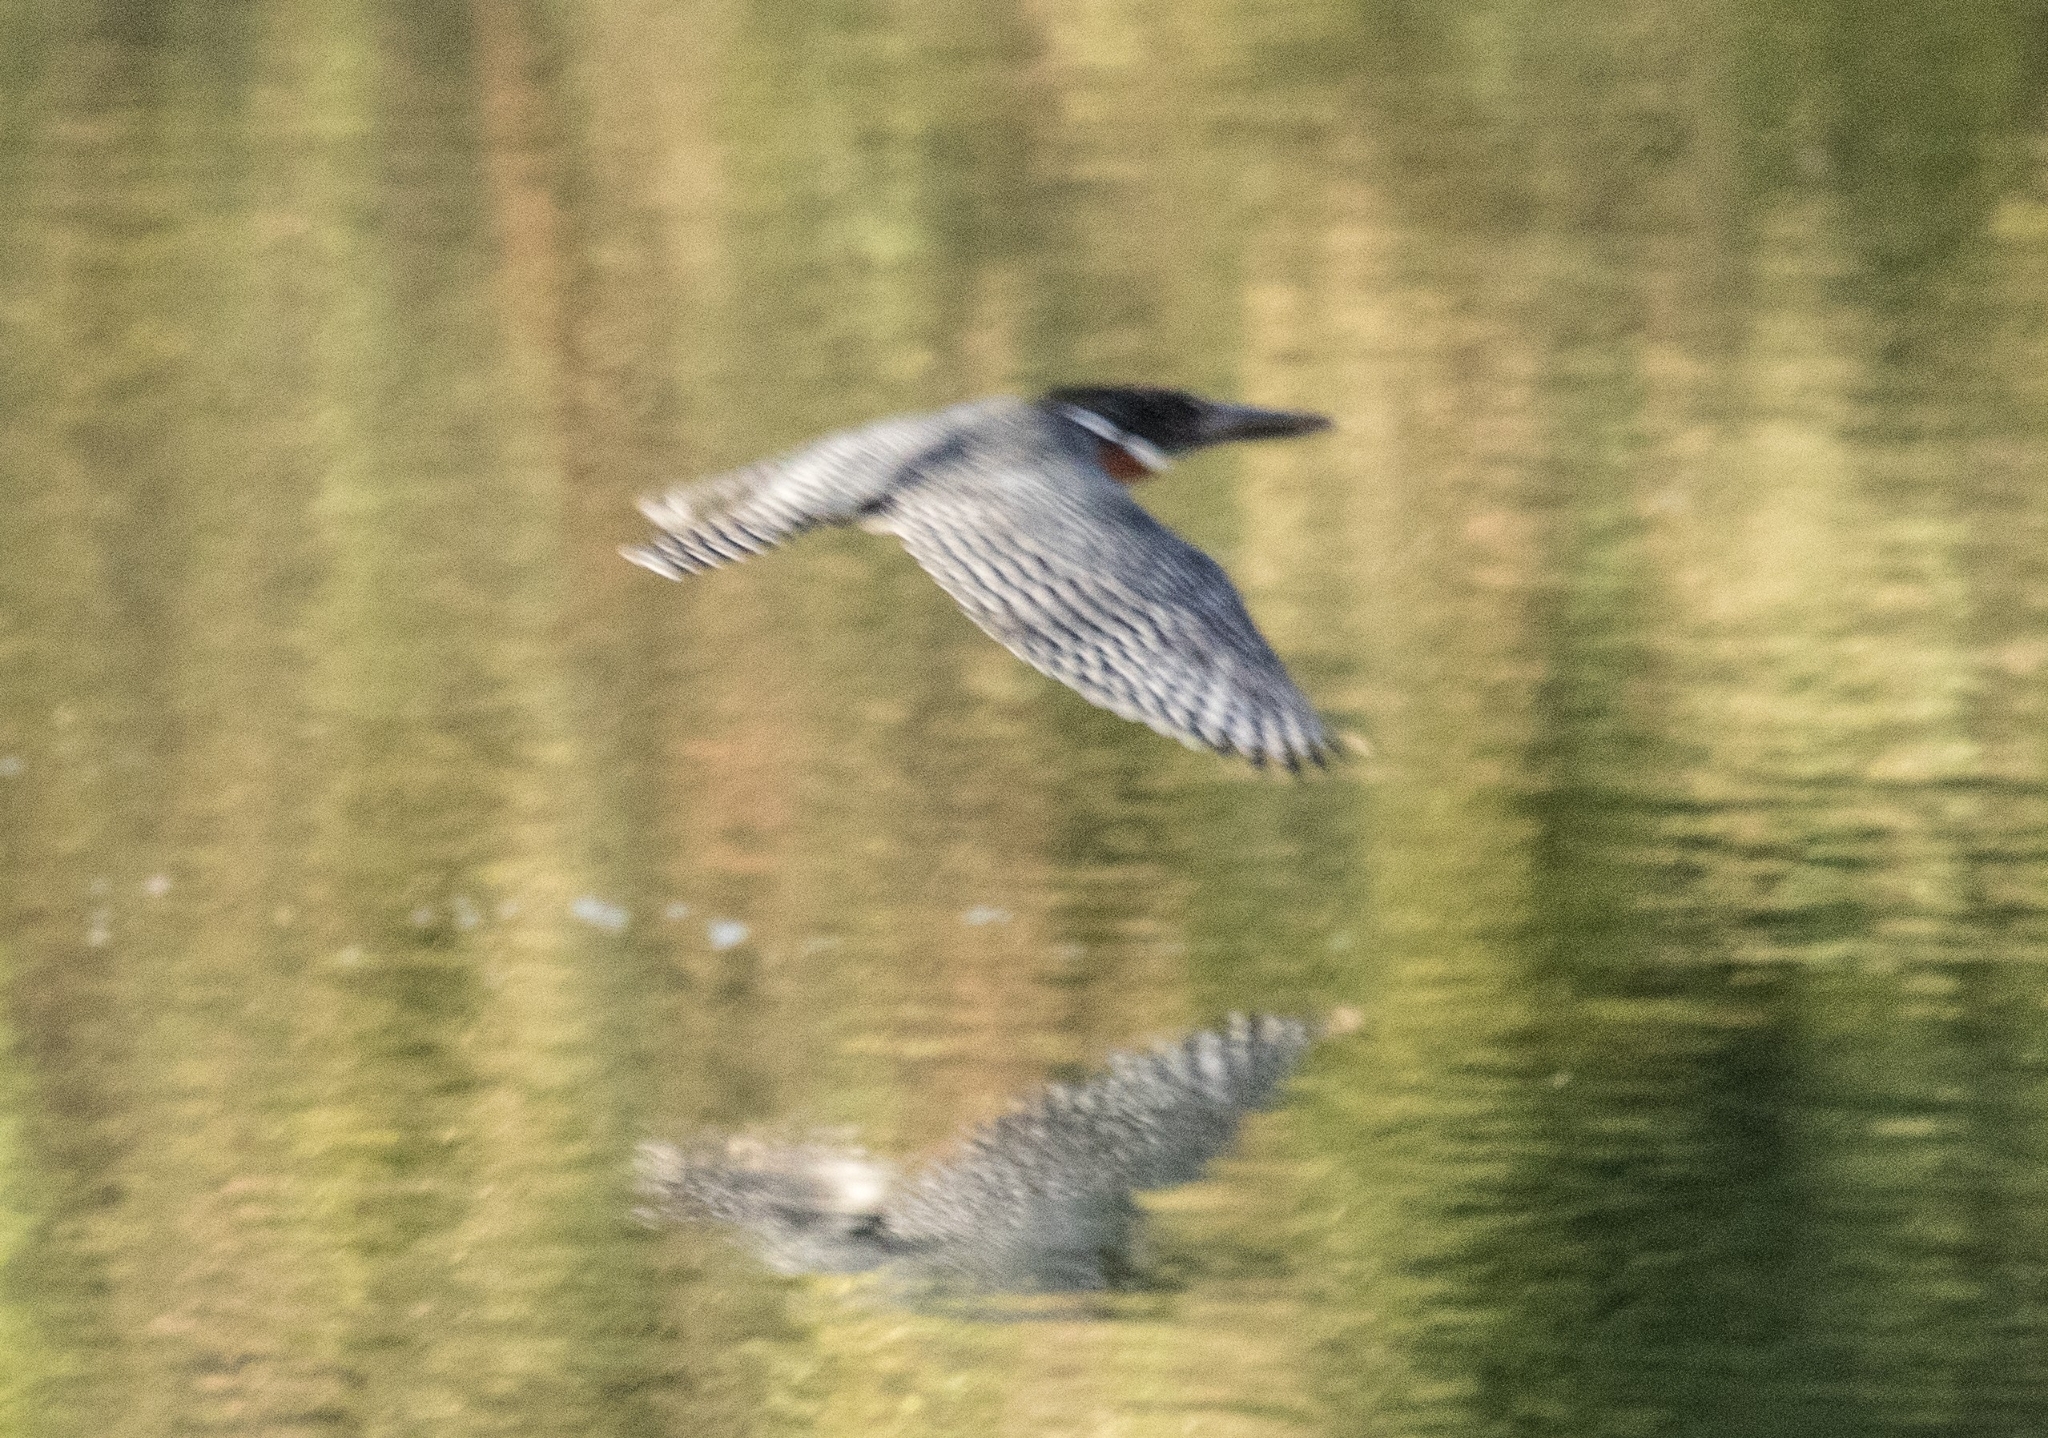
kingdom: Animalia
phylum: Chordata
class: Aves
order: Coraciiformes
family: Alcedinidae
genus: Megaceryle
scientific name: Megaceryle maxima
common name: Giant kingfisher
